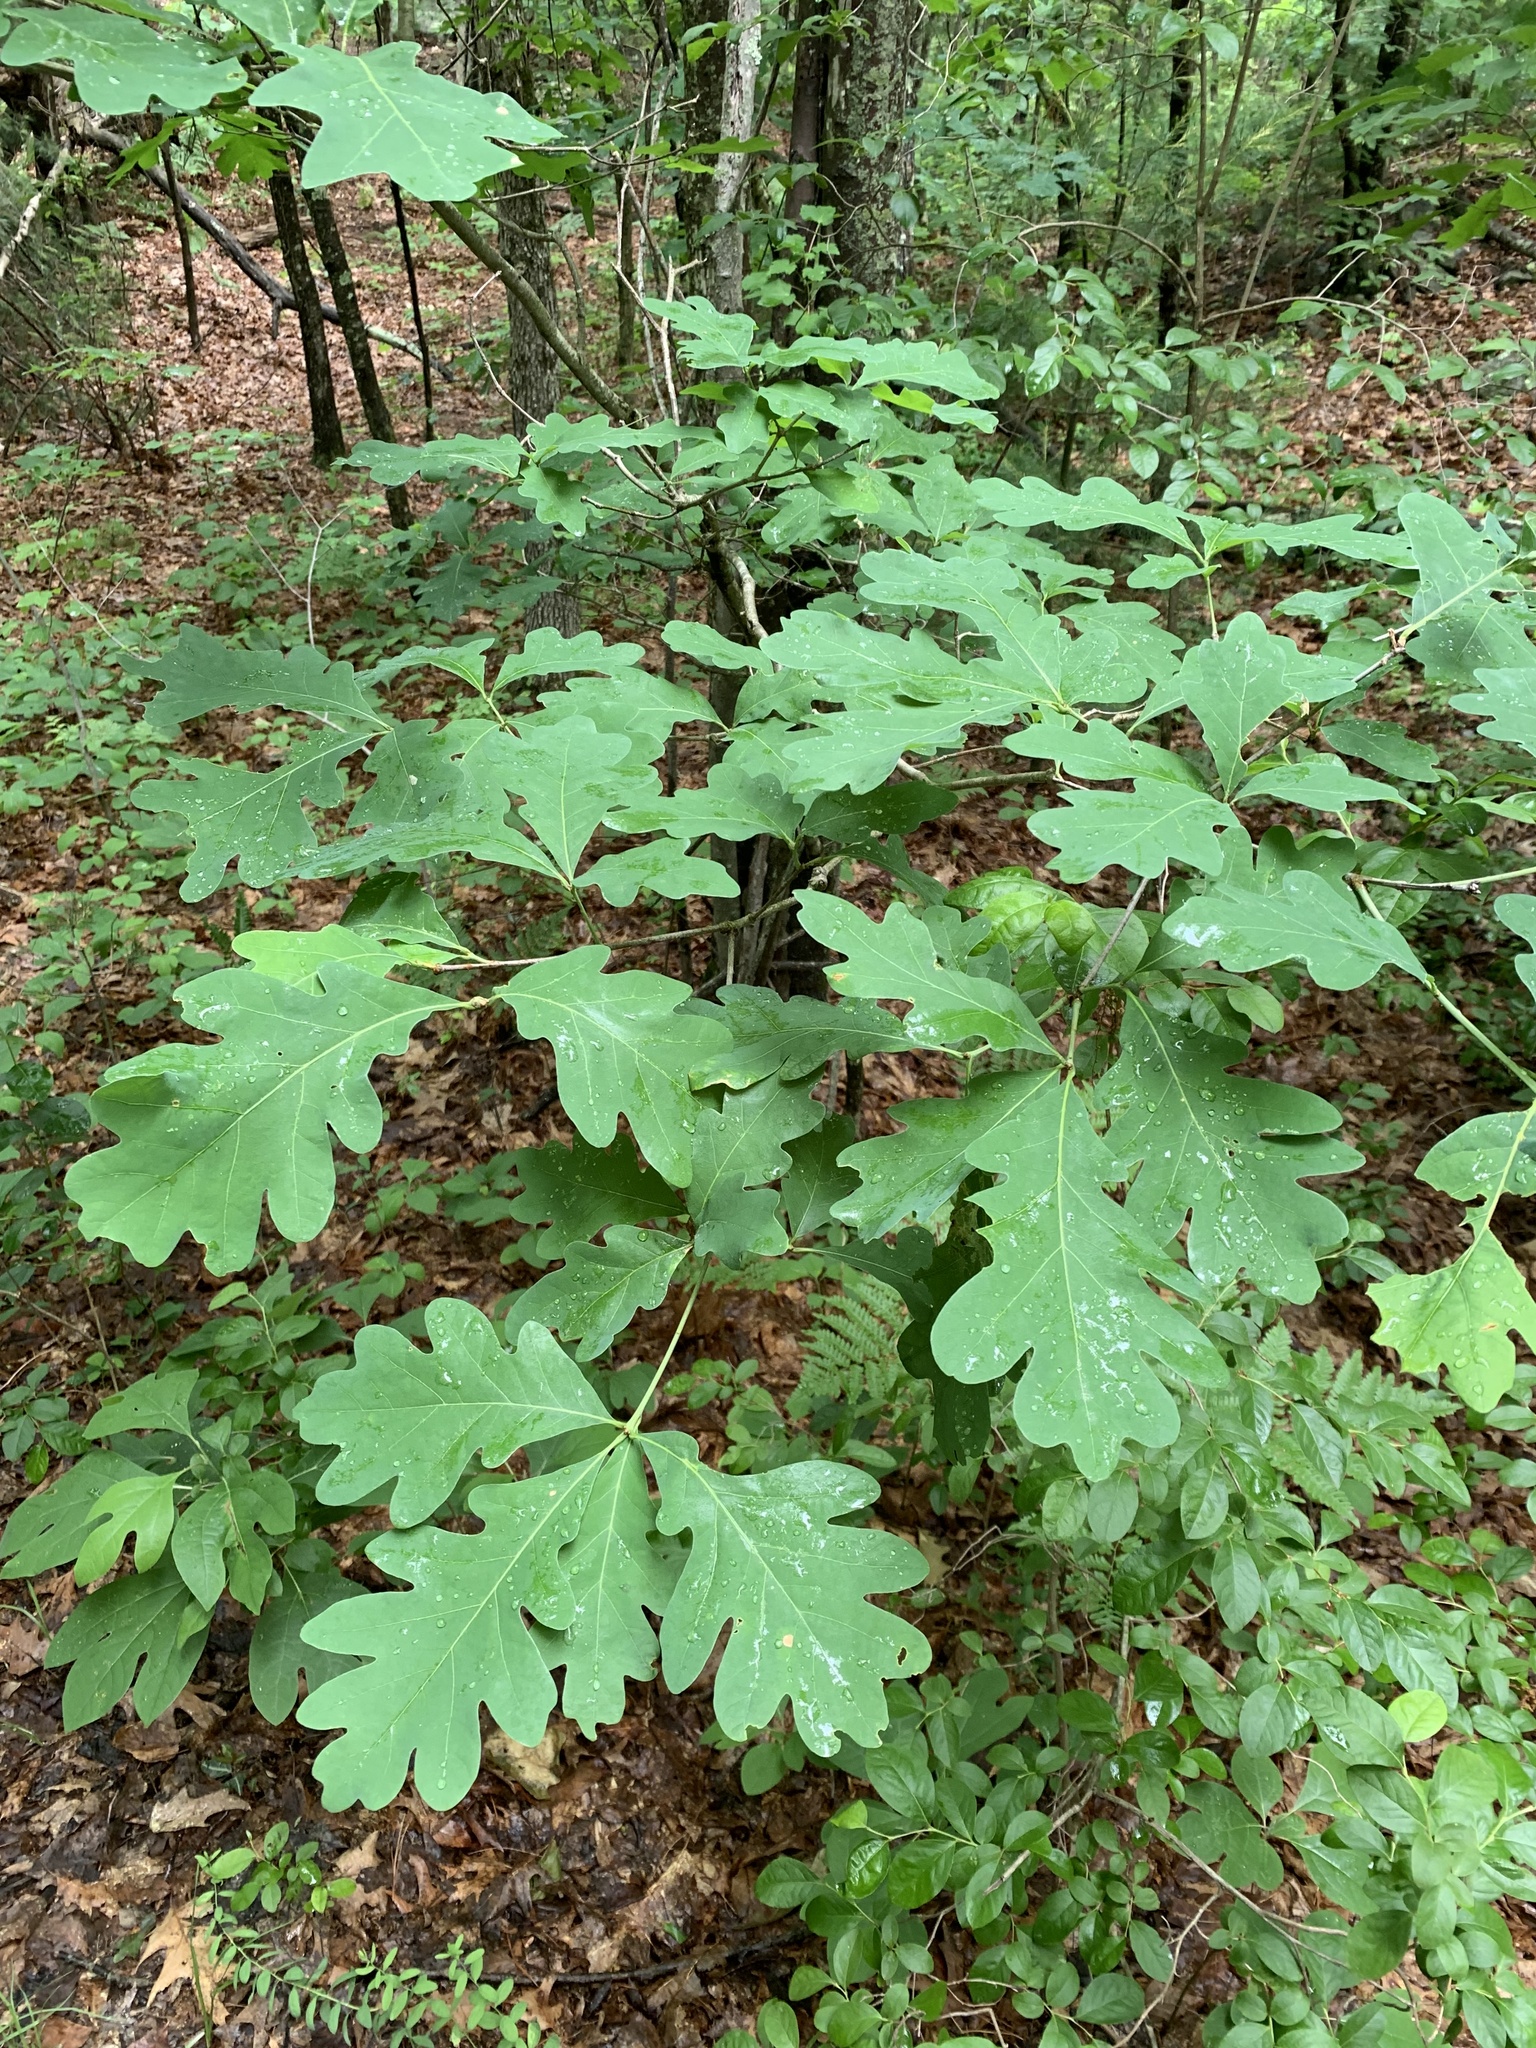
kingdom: Plantae
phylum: Tracheophyta
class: Magnoliopsida
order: Fagales
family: Fagaceae
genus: Quercus
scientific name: Quercus alba
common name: White oak
